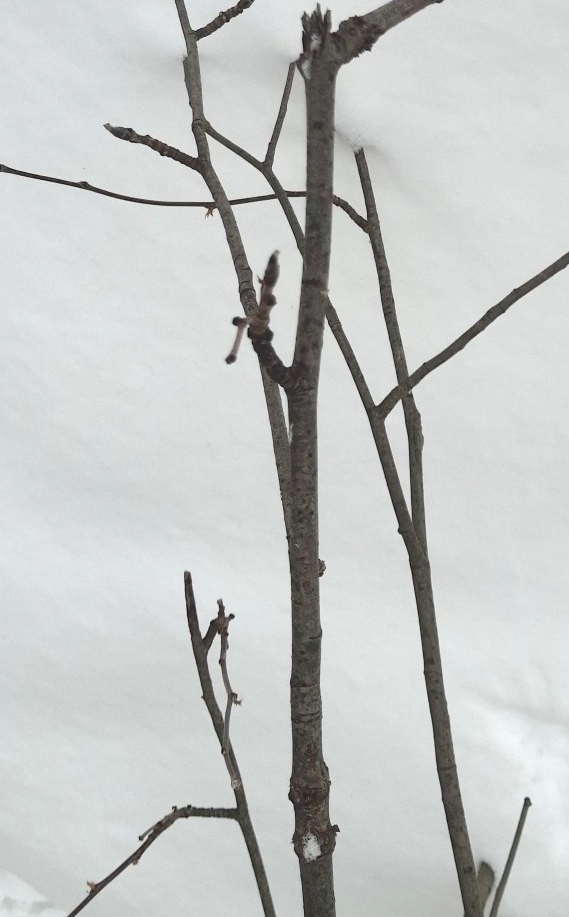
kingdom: Plantae
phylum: Tracheophyta
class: Magnoliopsida
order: Rosales
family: Rosaceae
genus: Sorbus
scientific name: Sorbus aucuparia
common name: Rowan
